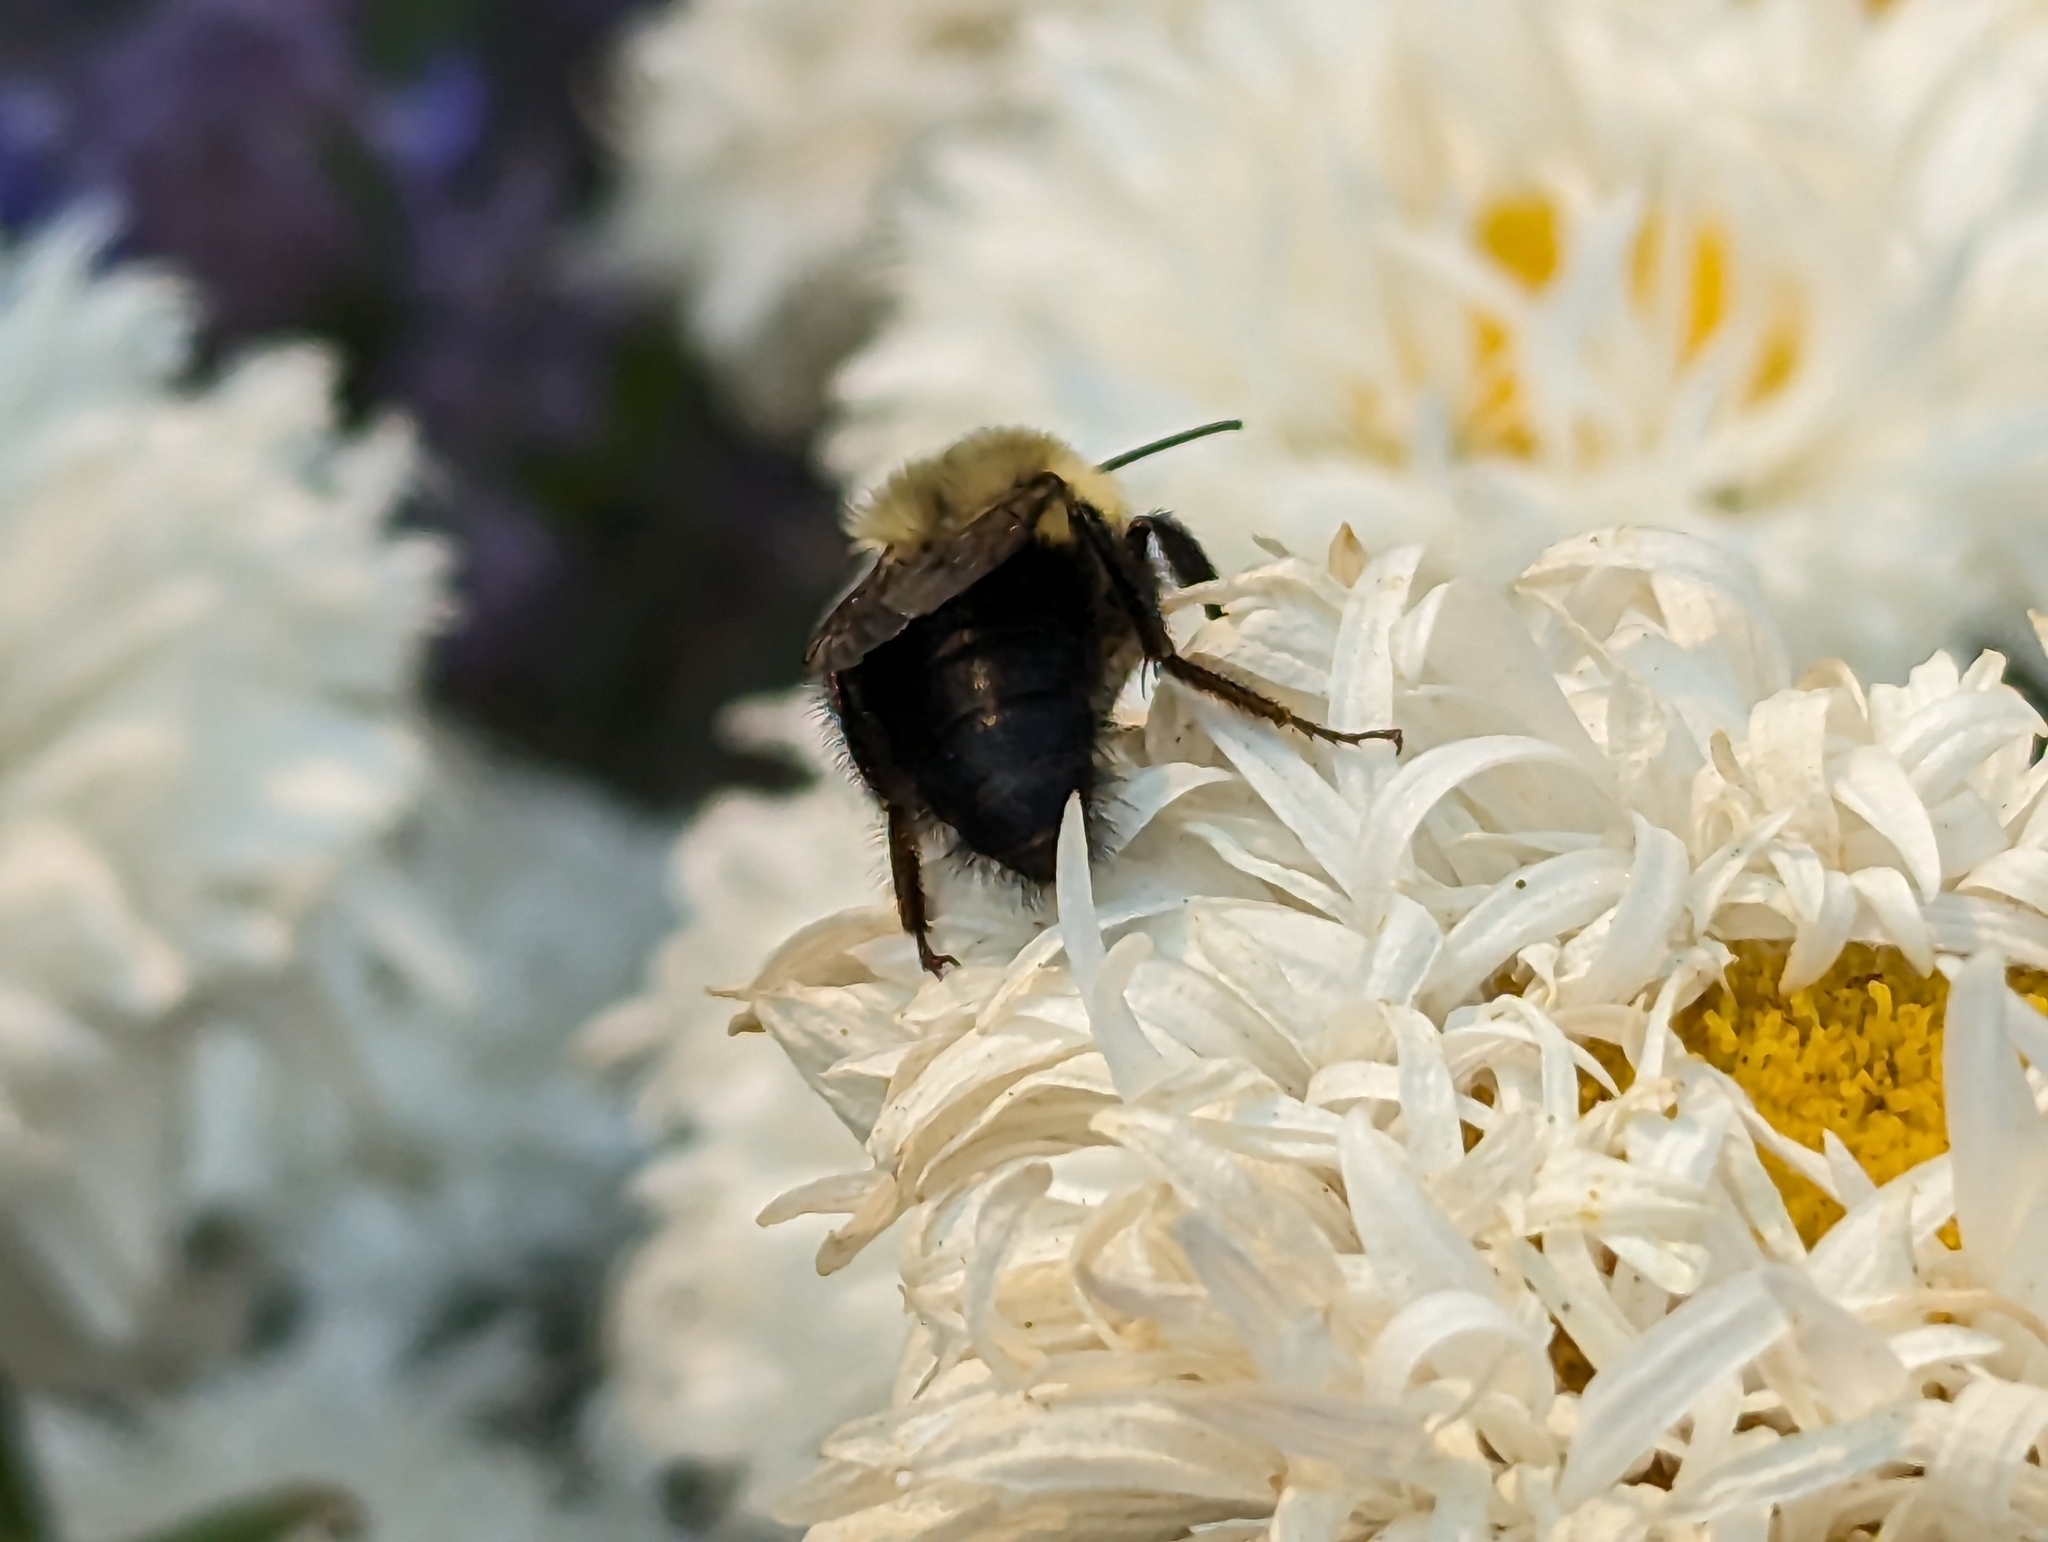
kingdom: Animalia
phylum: Arthropoda
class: Insecta
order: Hymenoptera
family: Apidae
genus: Bombus
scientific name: Bombus impatiens
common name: Common eastern bumble bee
